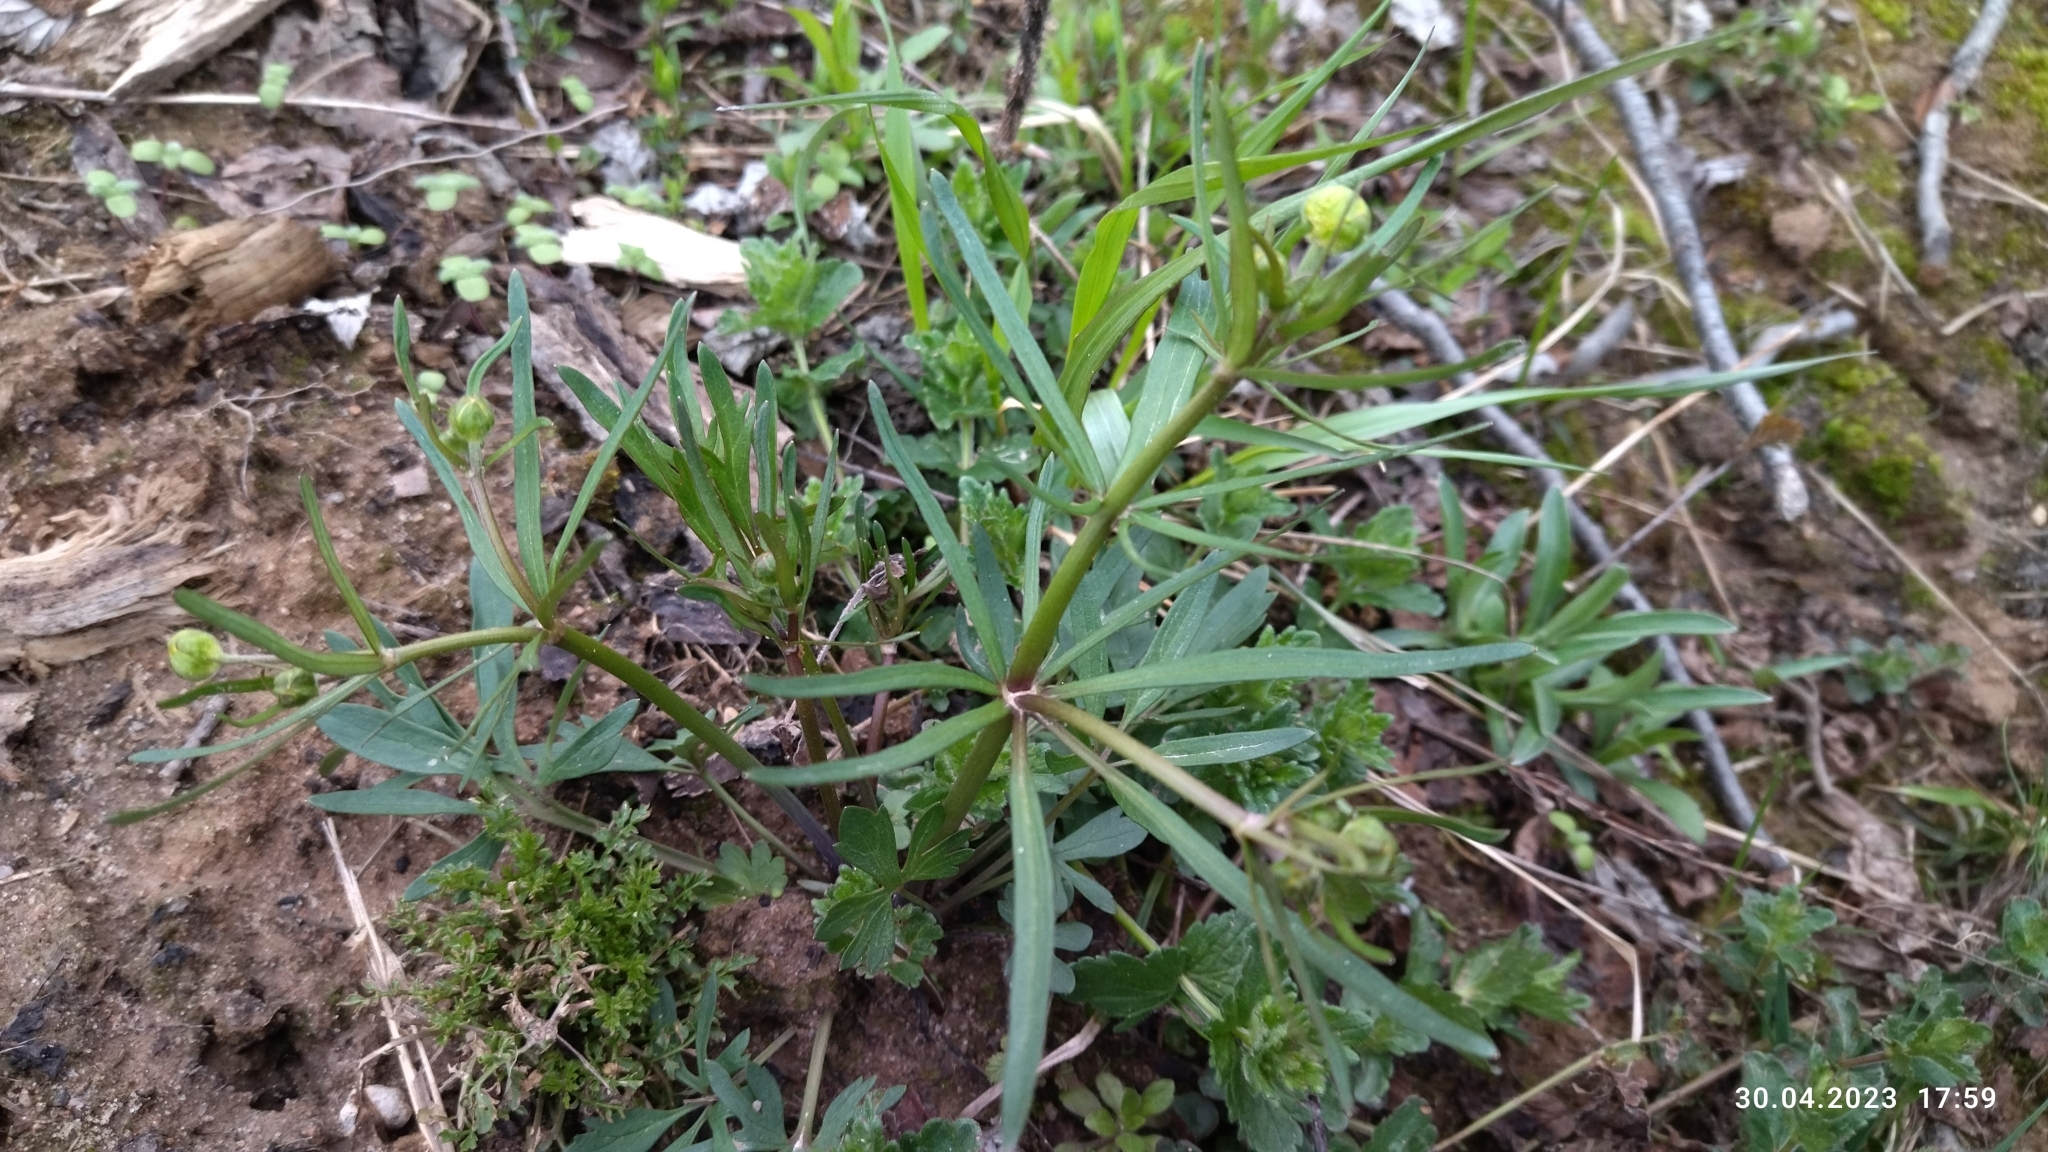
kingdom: Plantae
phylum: Tracheophyta
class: Magnoliopsida
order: Ranunculales
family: Ranunculaceae
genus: Ranunculus
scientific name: Ranunculus auricomus
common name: Goldilocks buttercup
